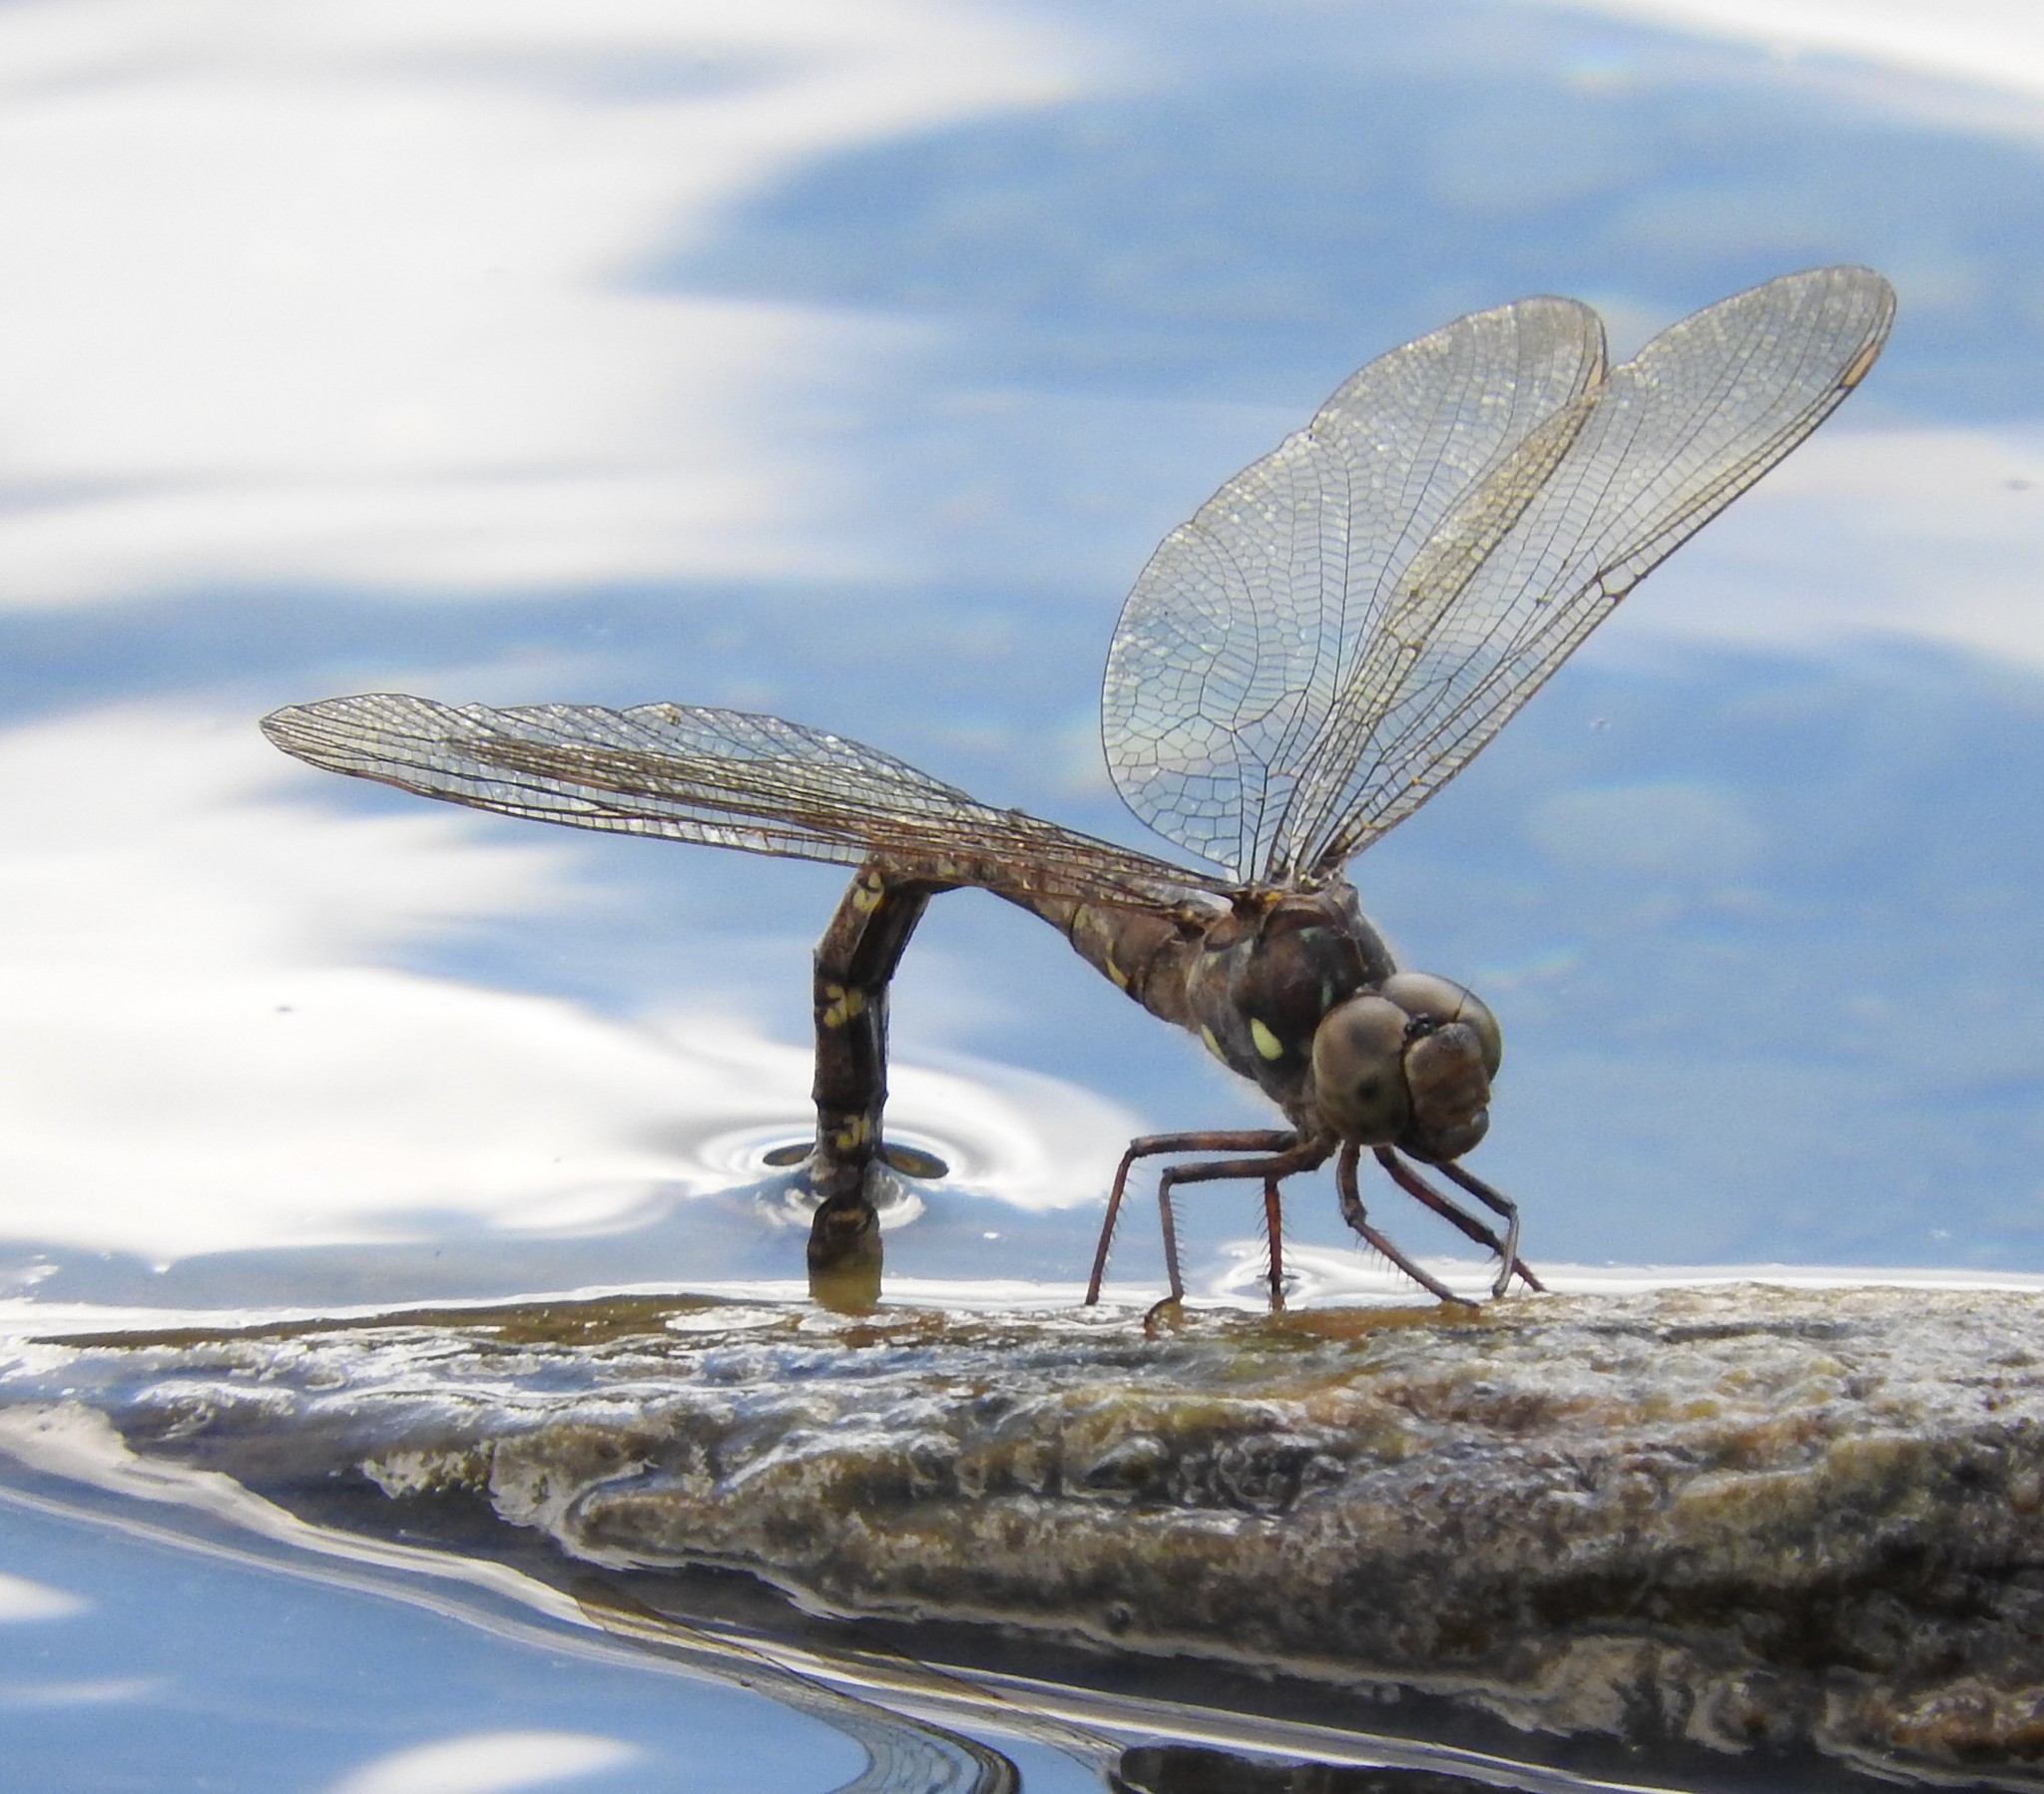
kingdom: Animalia
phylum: Arthropoda
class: Insecta
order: Odonata
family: Aeshnidae
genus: Boyeria
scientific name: Boyeria grafiana
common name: Ocellated darner
